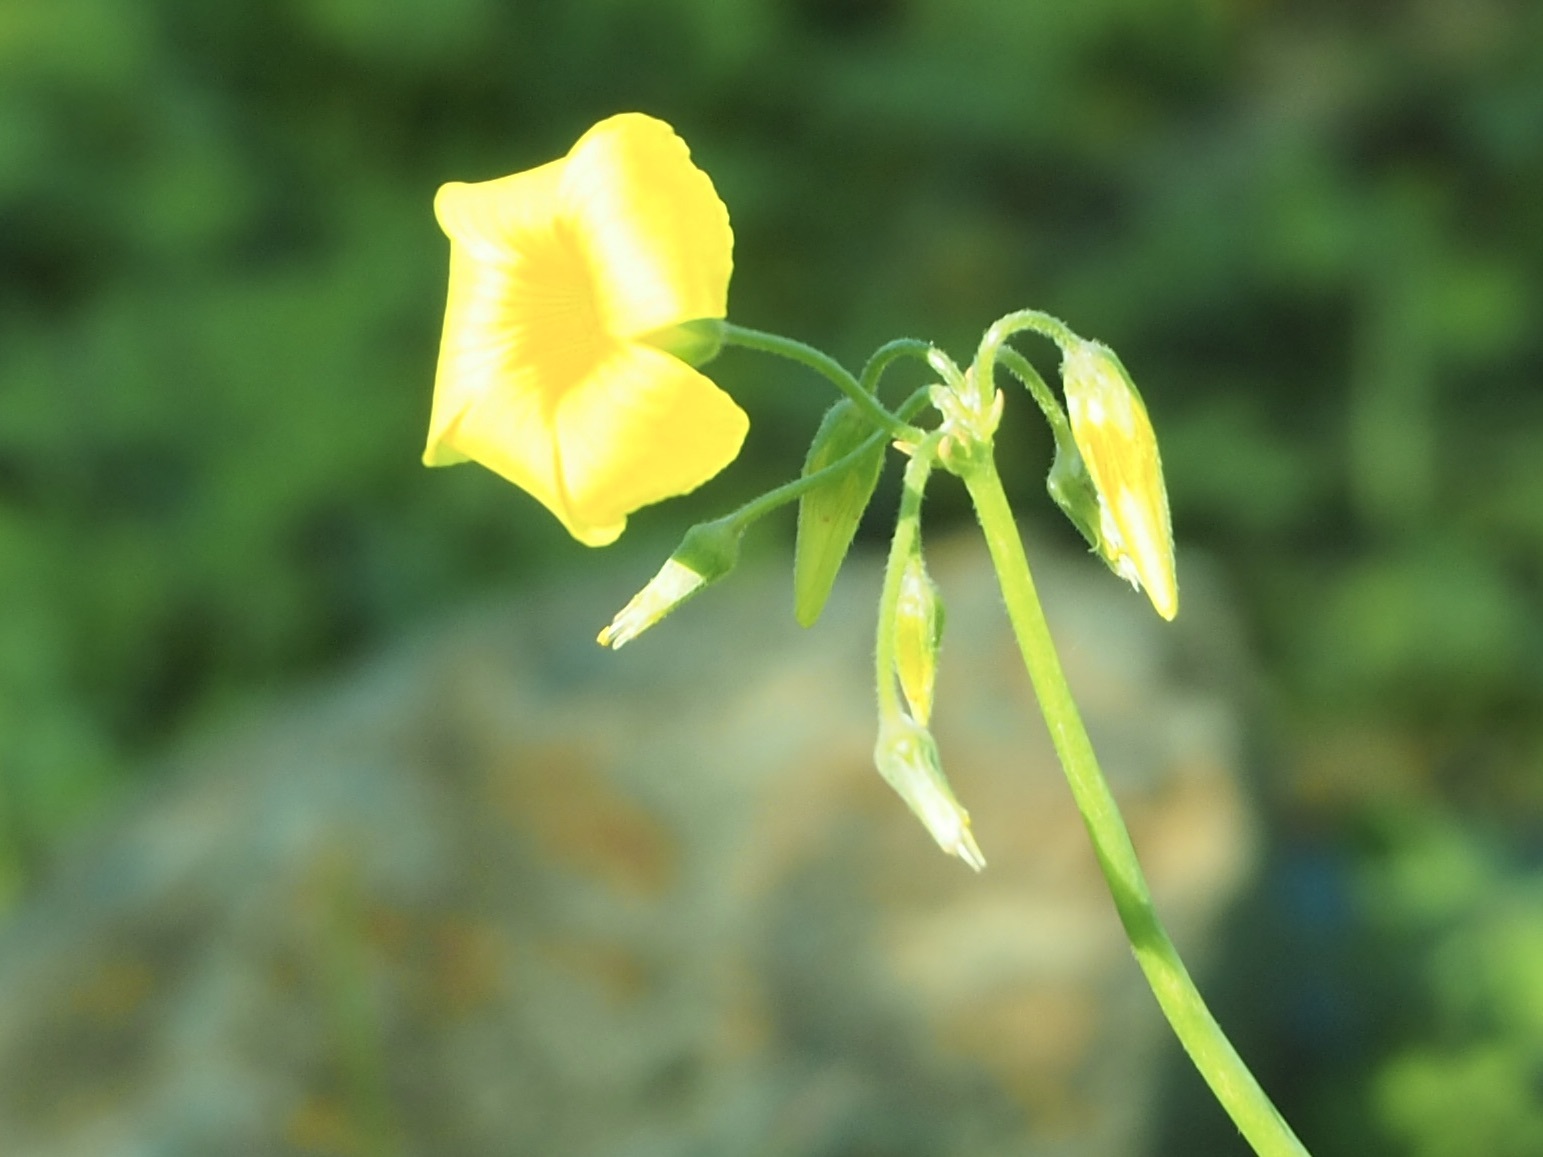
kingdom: Plantae
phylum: Tracheophyta
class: Magnoliopsida
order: Oxalidales
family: Oxalidaceae
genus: Oxalis
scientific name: Oxalis pes-caprae
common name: Bermuda-buttercup
